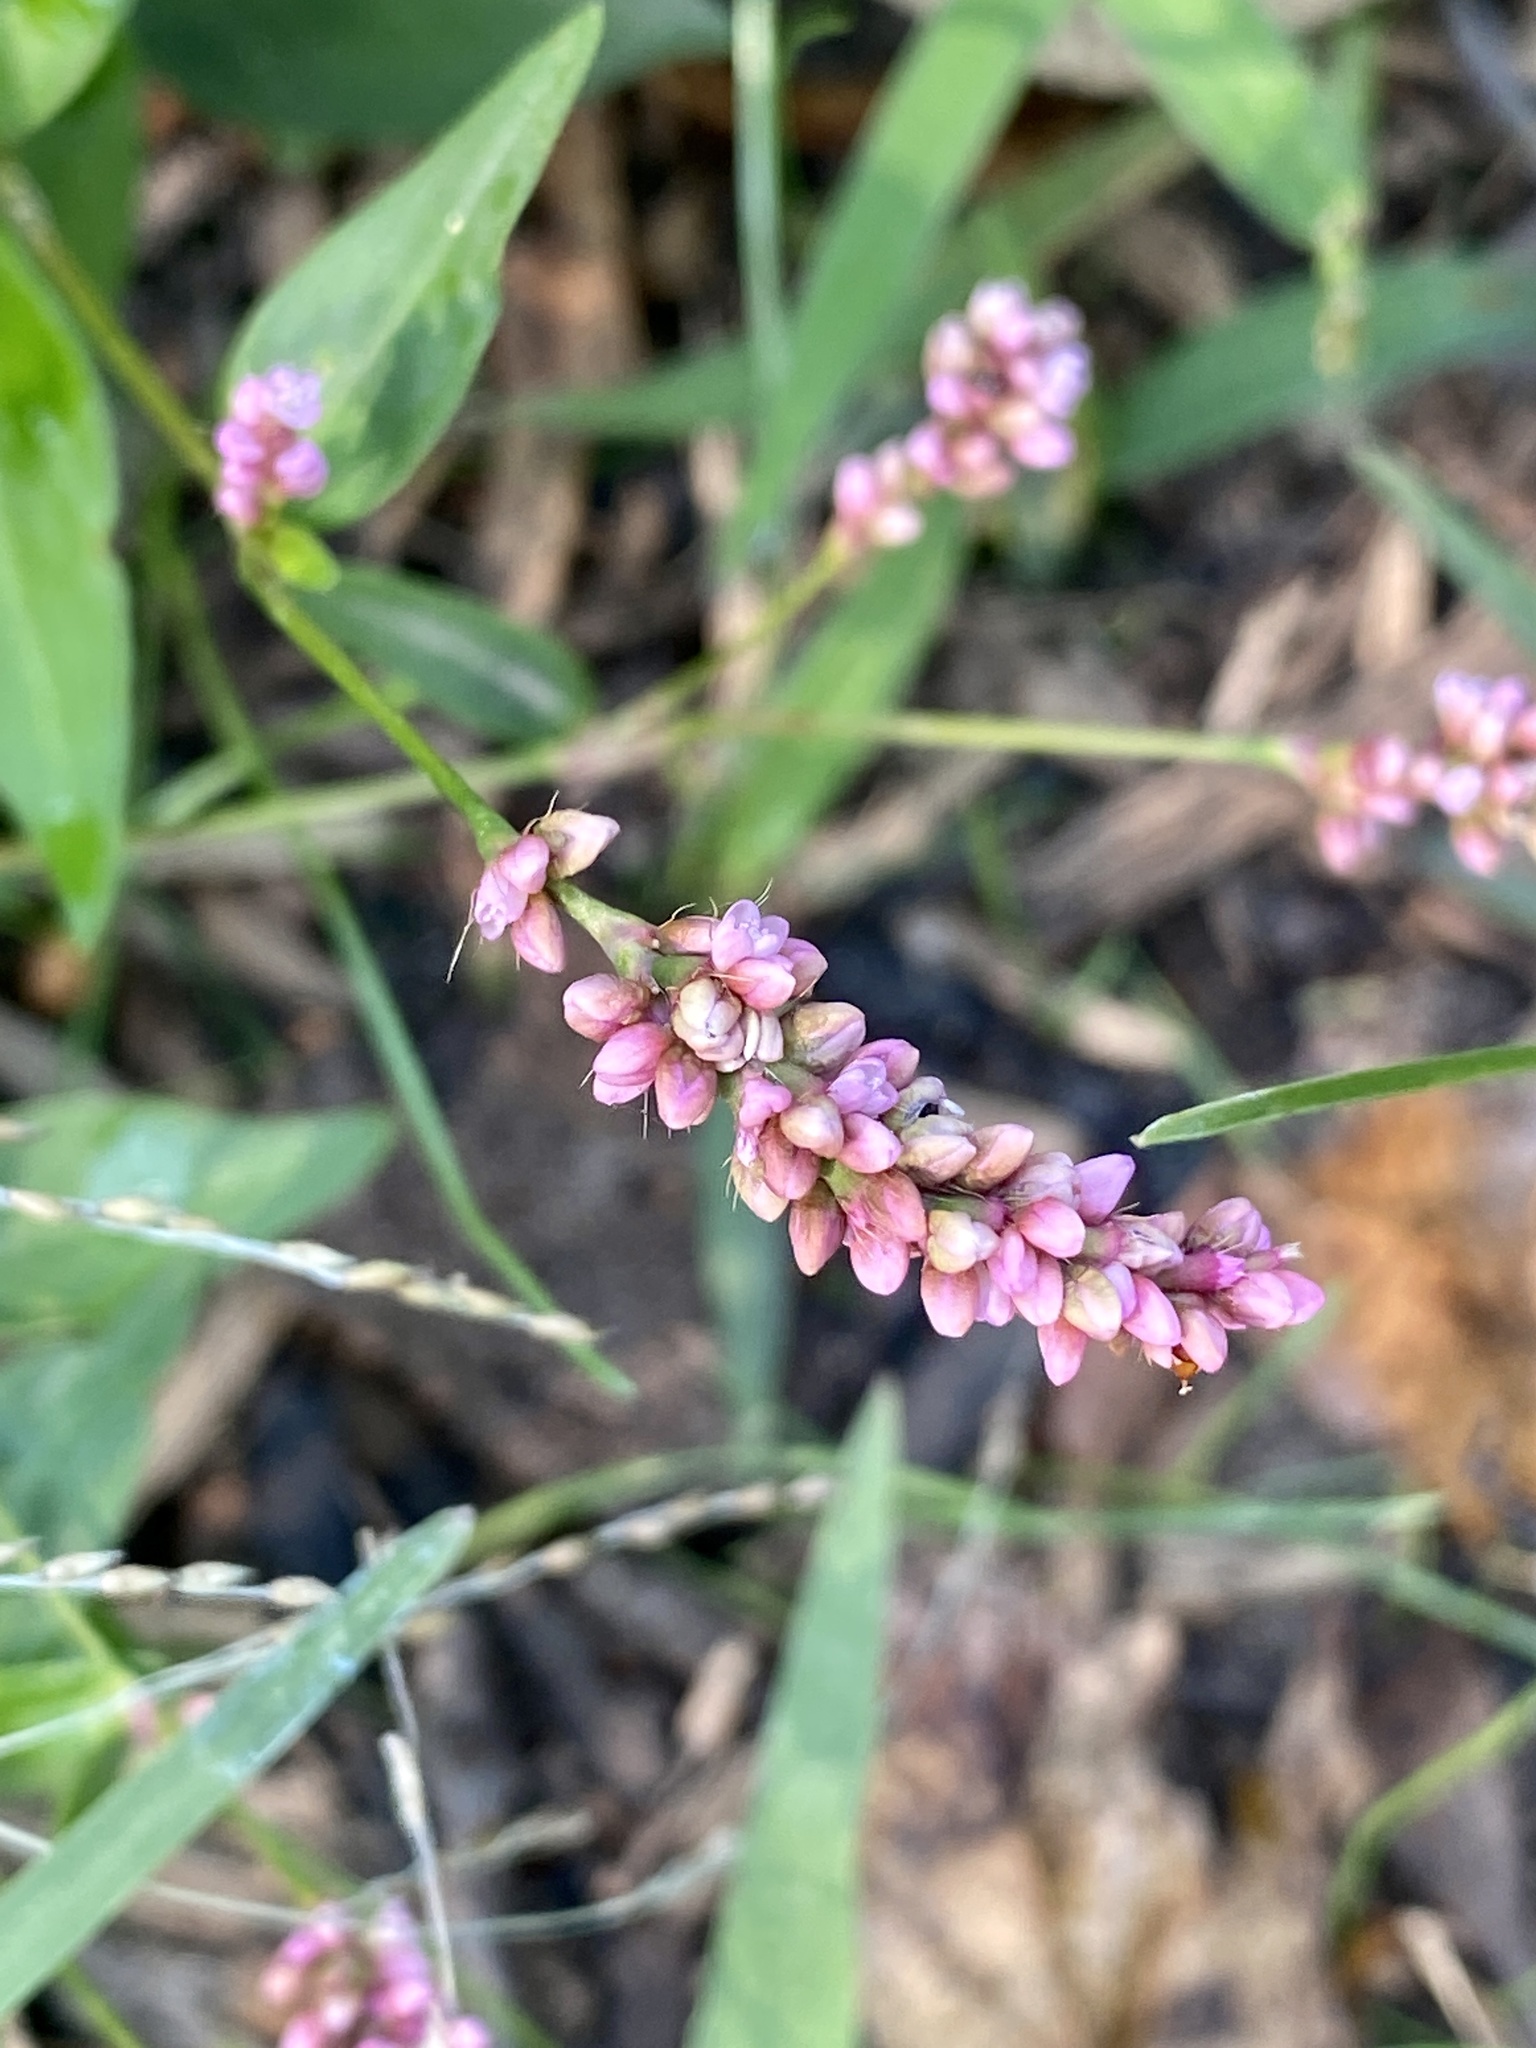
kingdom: Plantae
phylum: Tracheophyta
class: Magnoliopsida
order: Caryophyllales
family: Polygonaceae
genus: Persicaria
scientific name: Persicaria longiseta
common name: Bristly lady's-thumb
